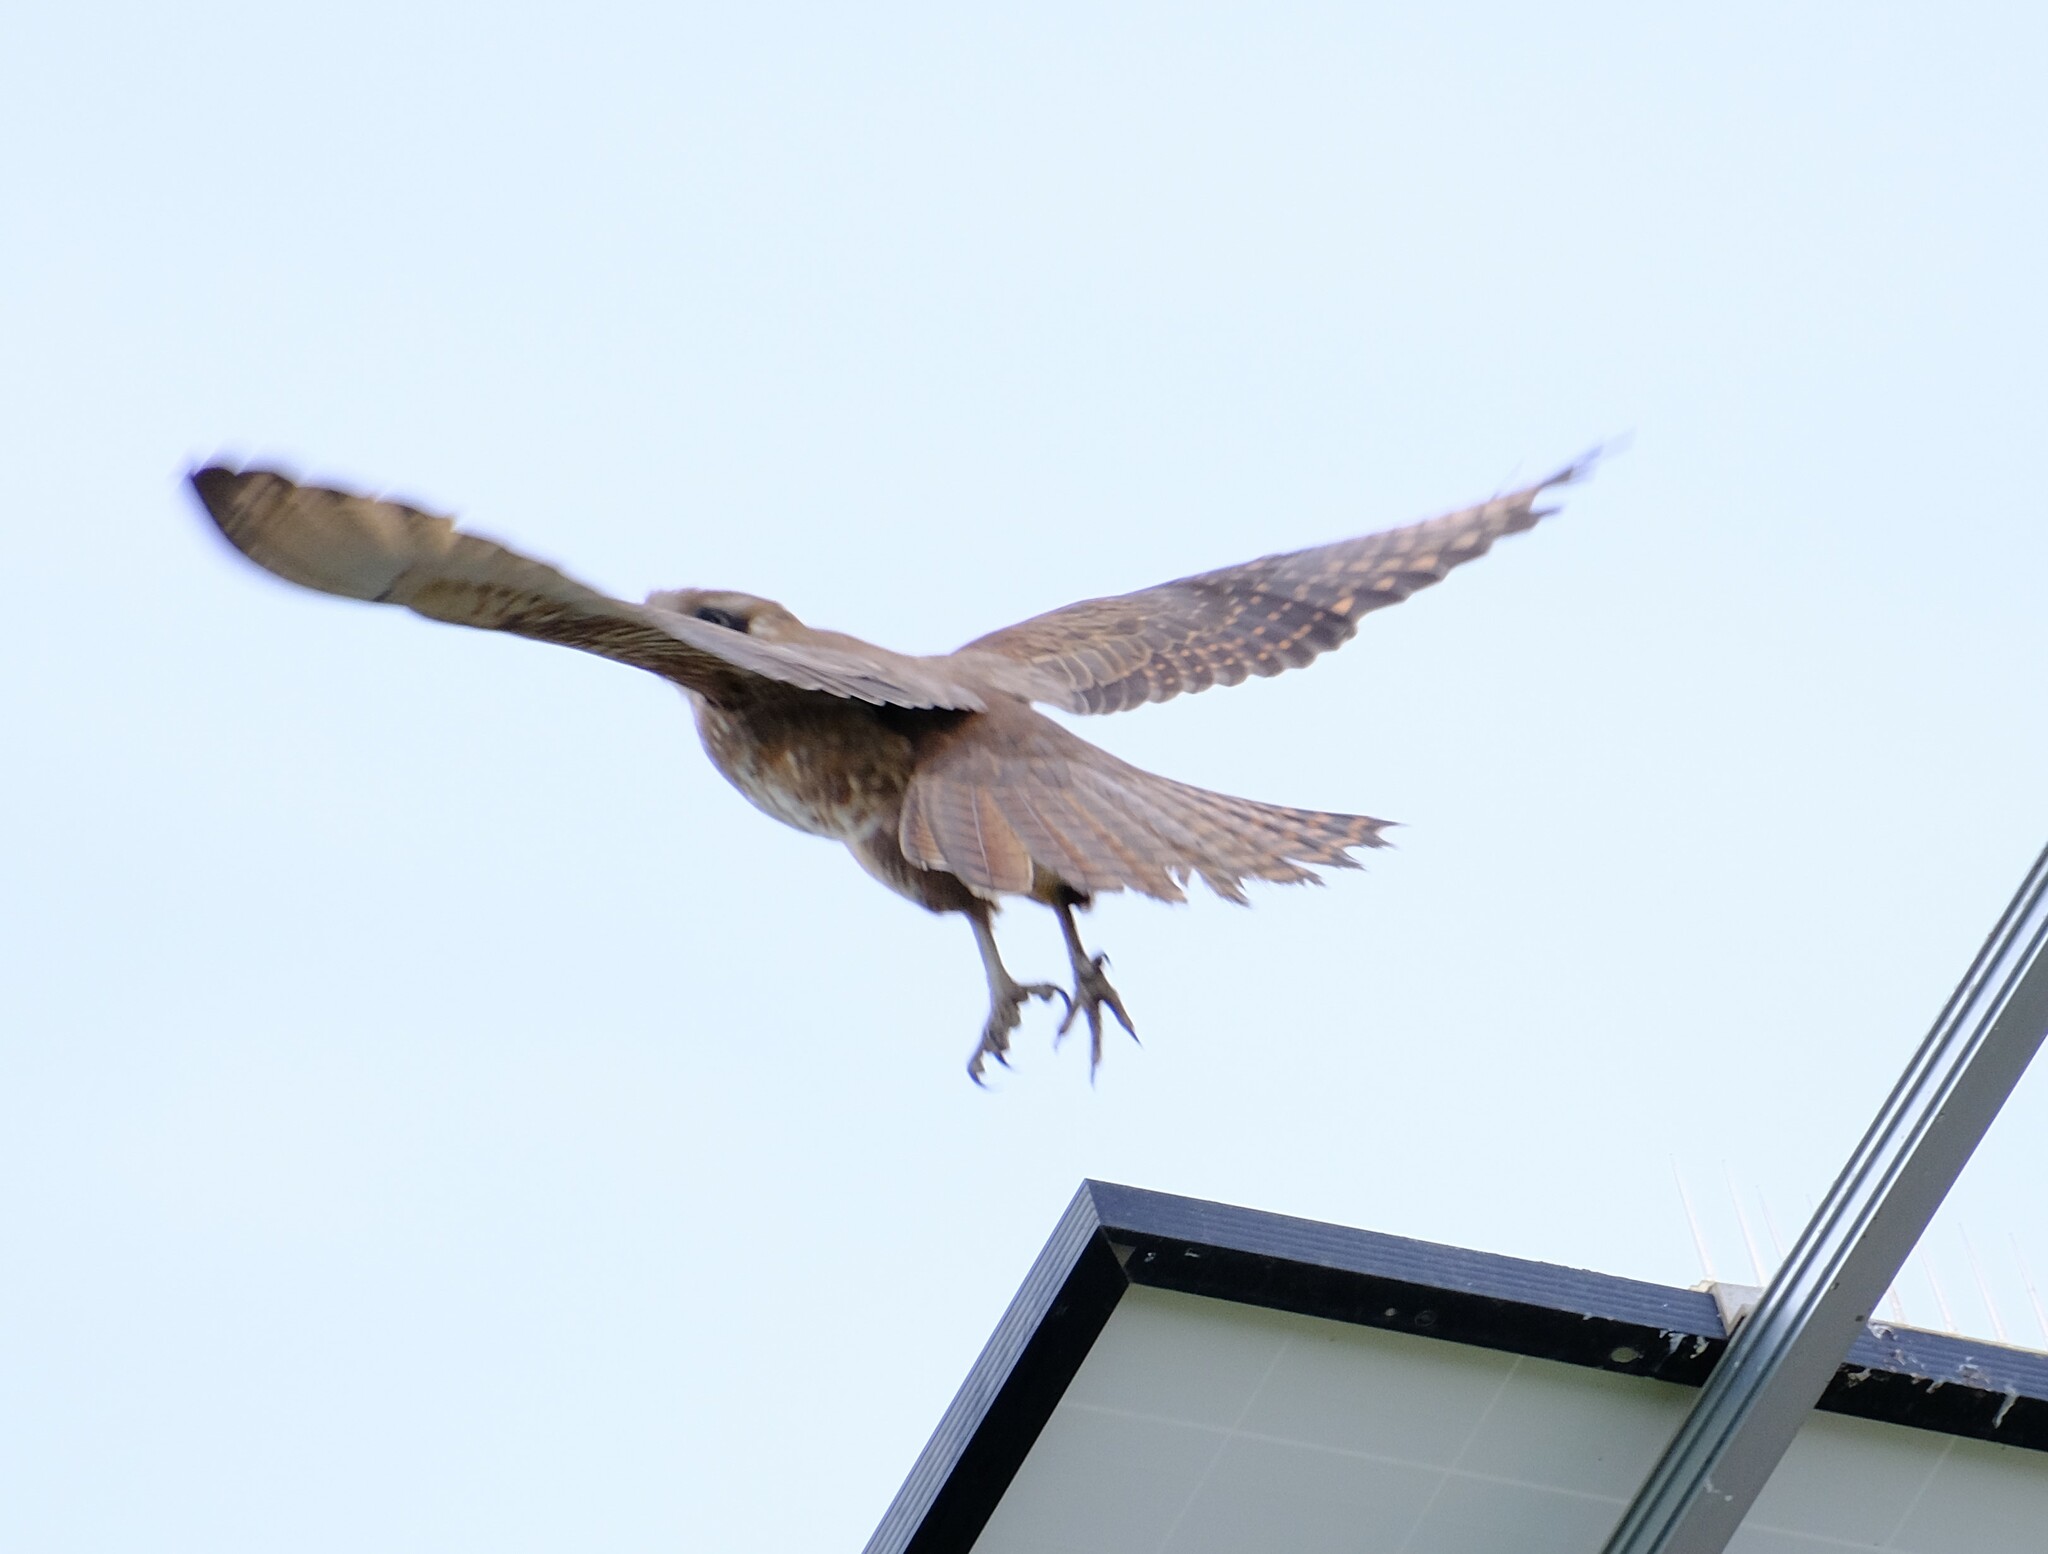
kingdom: Animalia
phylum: Chordata
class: Aves
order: Falconiformes
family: Falconidae
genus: Falco
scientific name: Falco berigora
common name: Brown falcon
